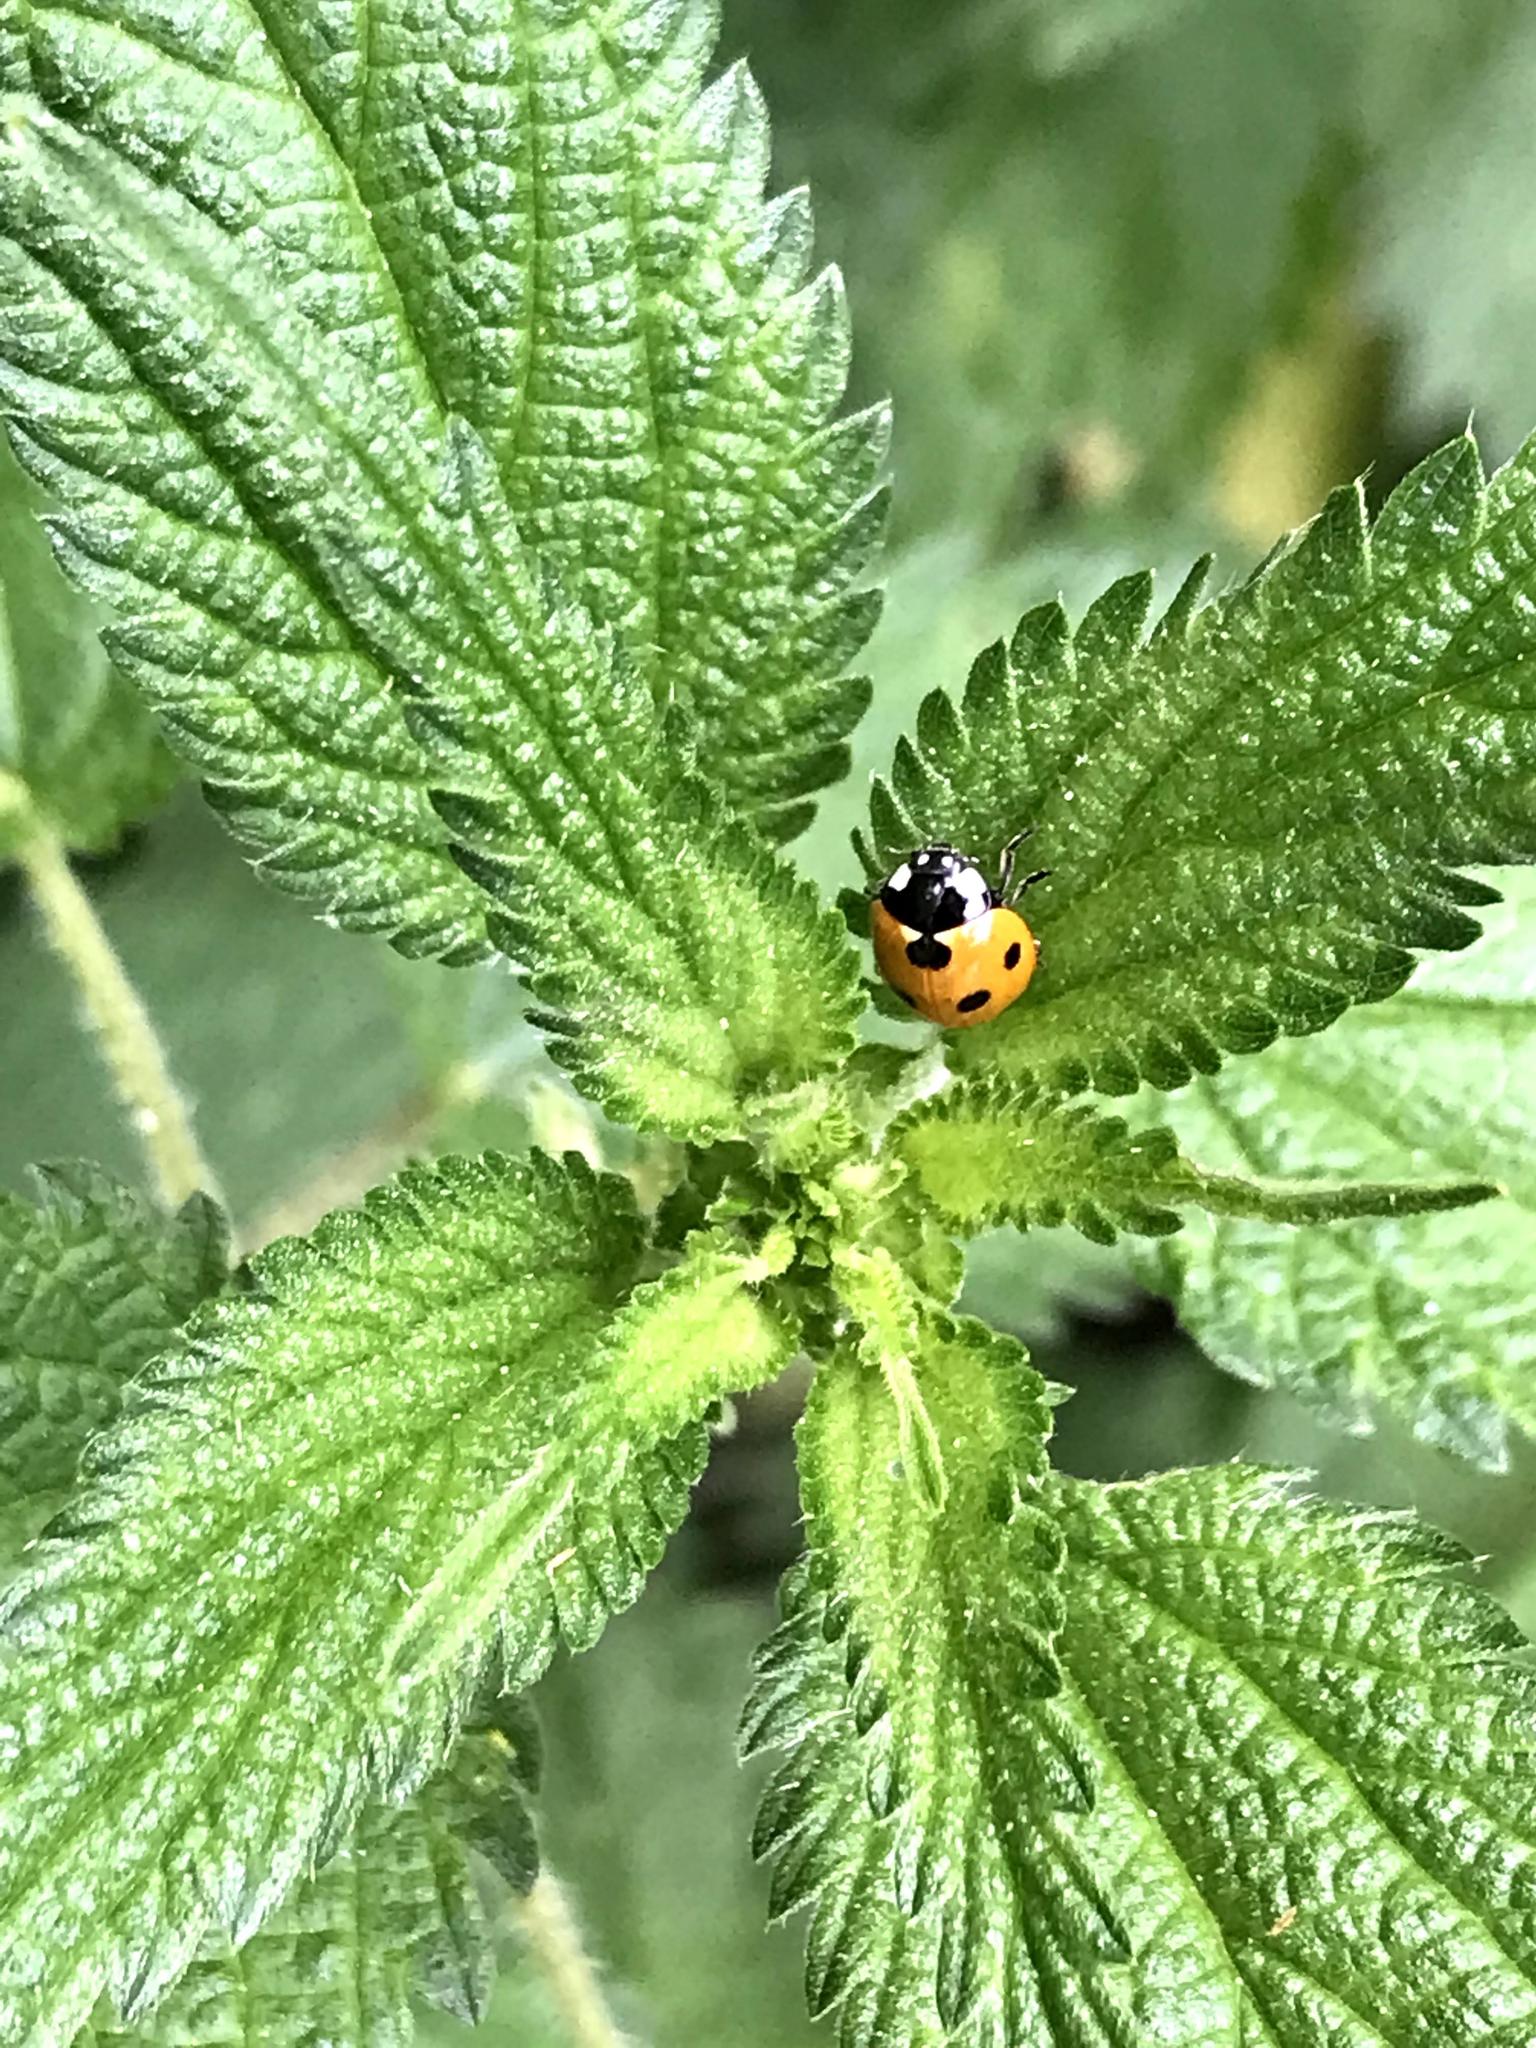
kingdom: Animalia
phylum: Arthropoda
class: Insecta
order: Coleoptera
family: Coccinellidae
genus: Coccinella
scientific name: Coccinella septempunctata
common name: Sevenspotted lady beetle
